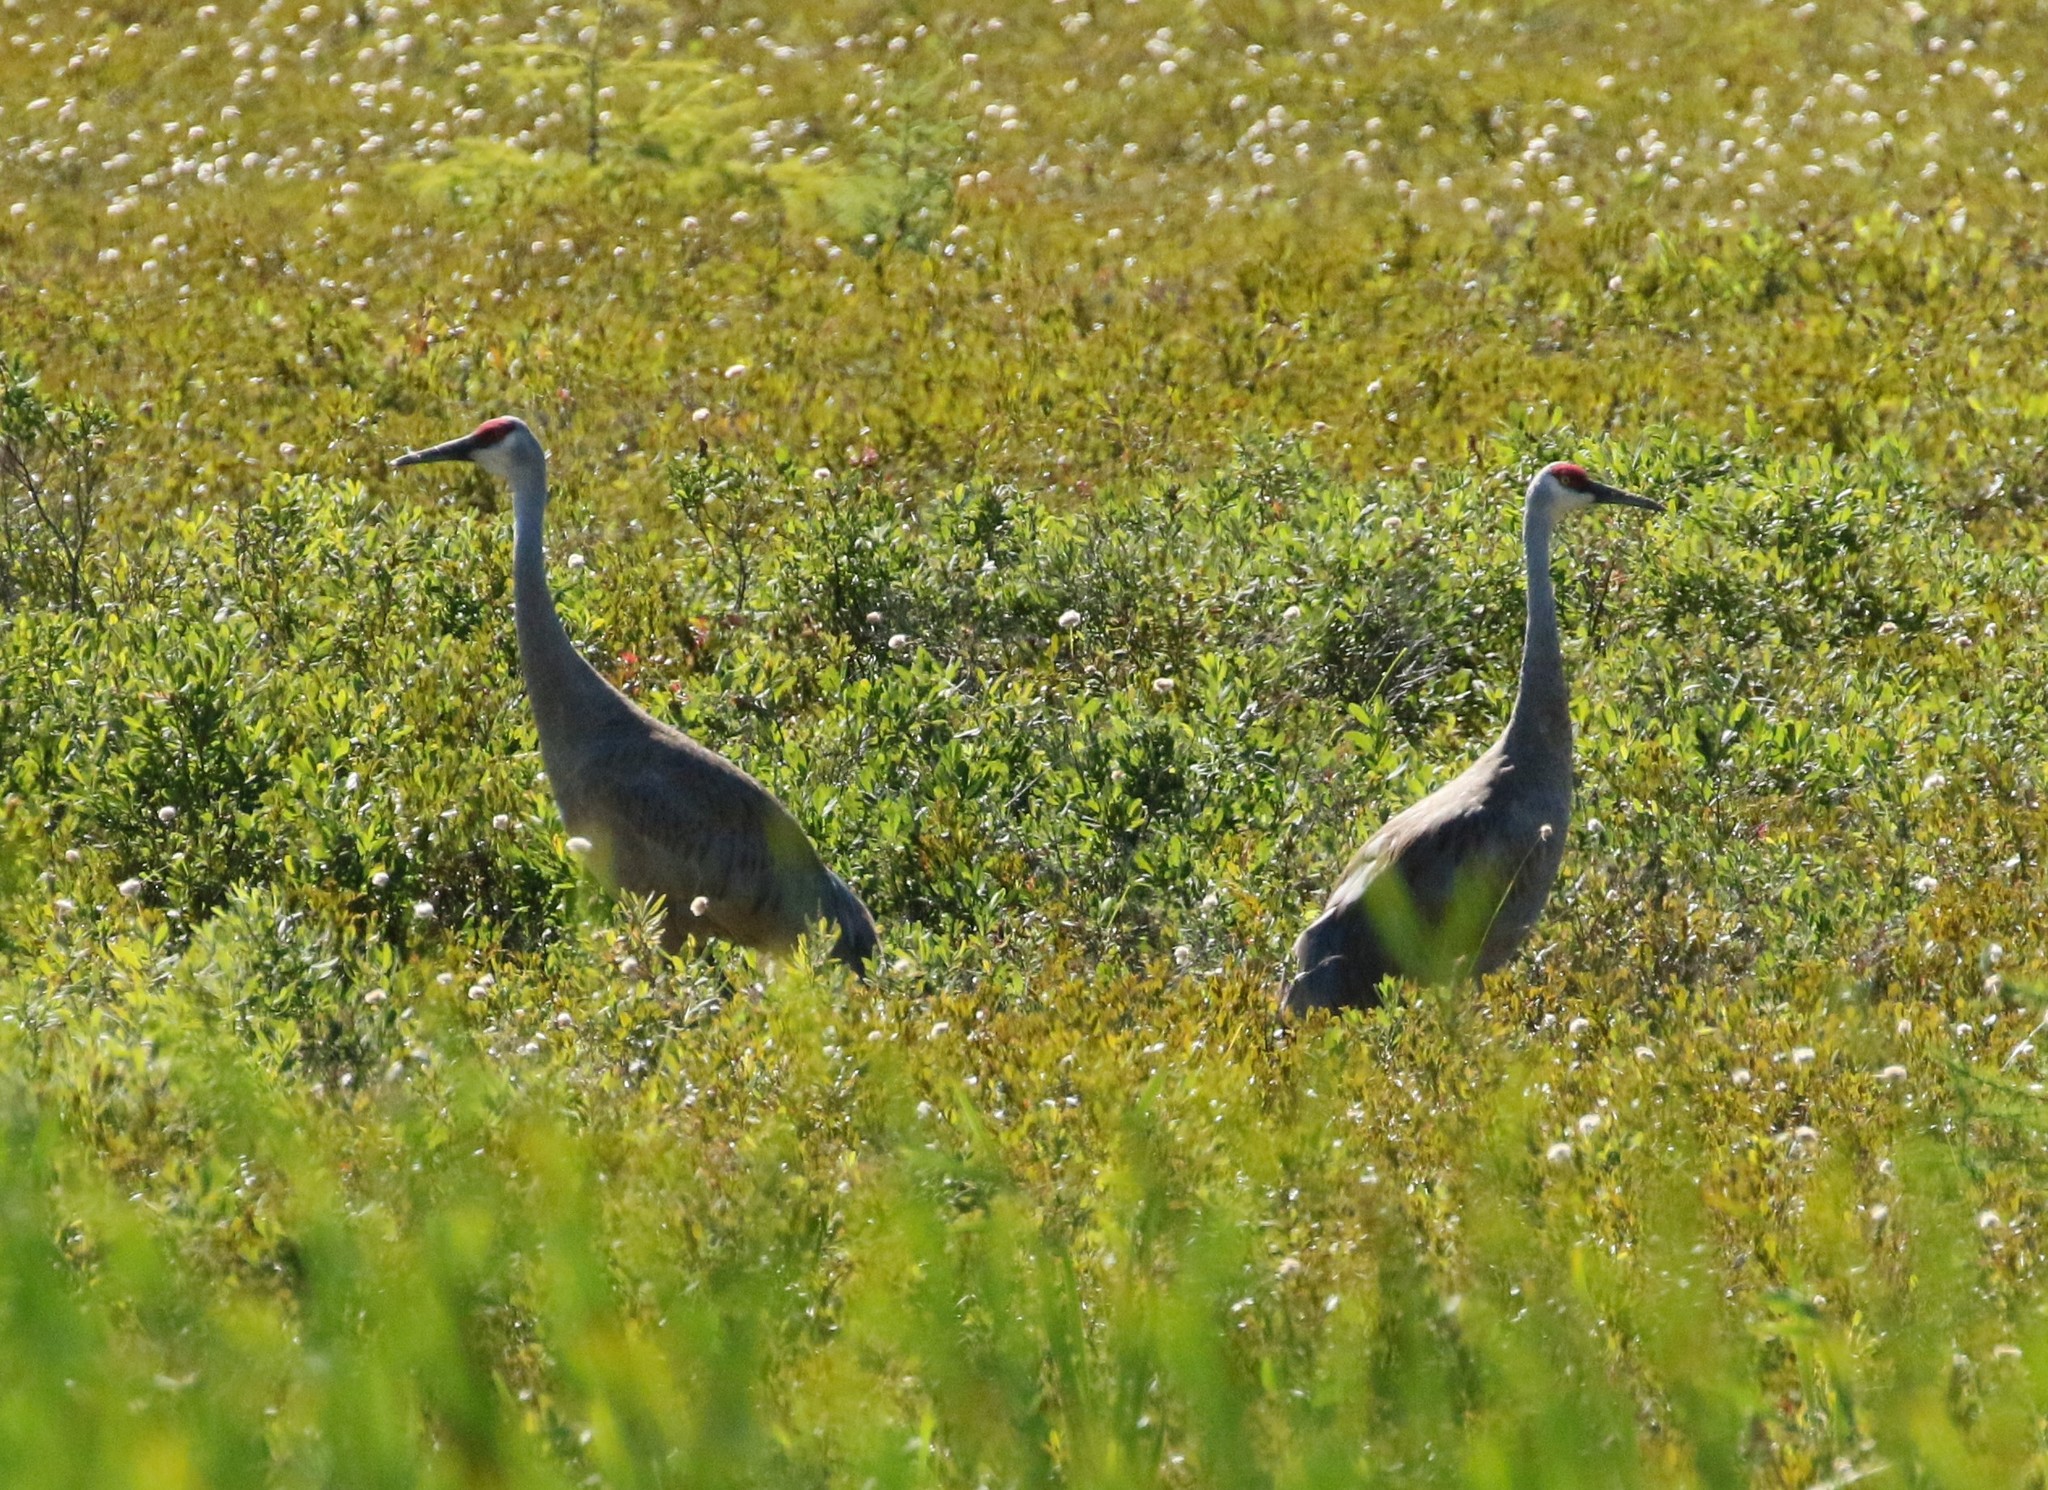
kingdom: Animalia
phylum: Chordata
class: Aves
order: Gruiformes
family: Gruidae
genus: Grus
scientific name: Grus canadensis
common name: Sandhill crane
